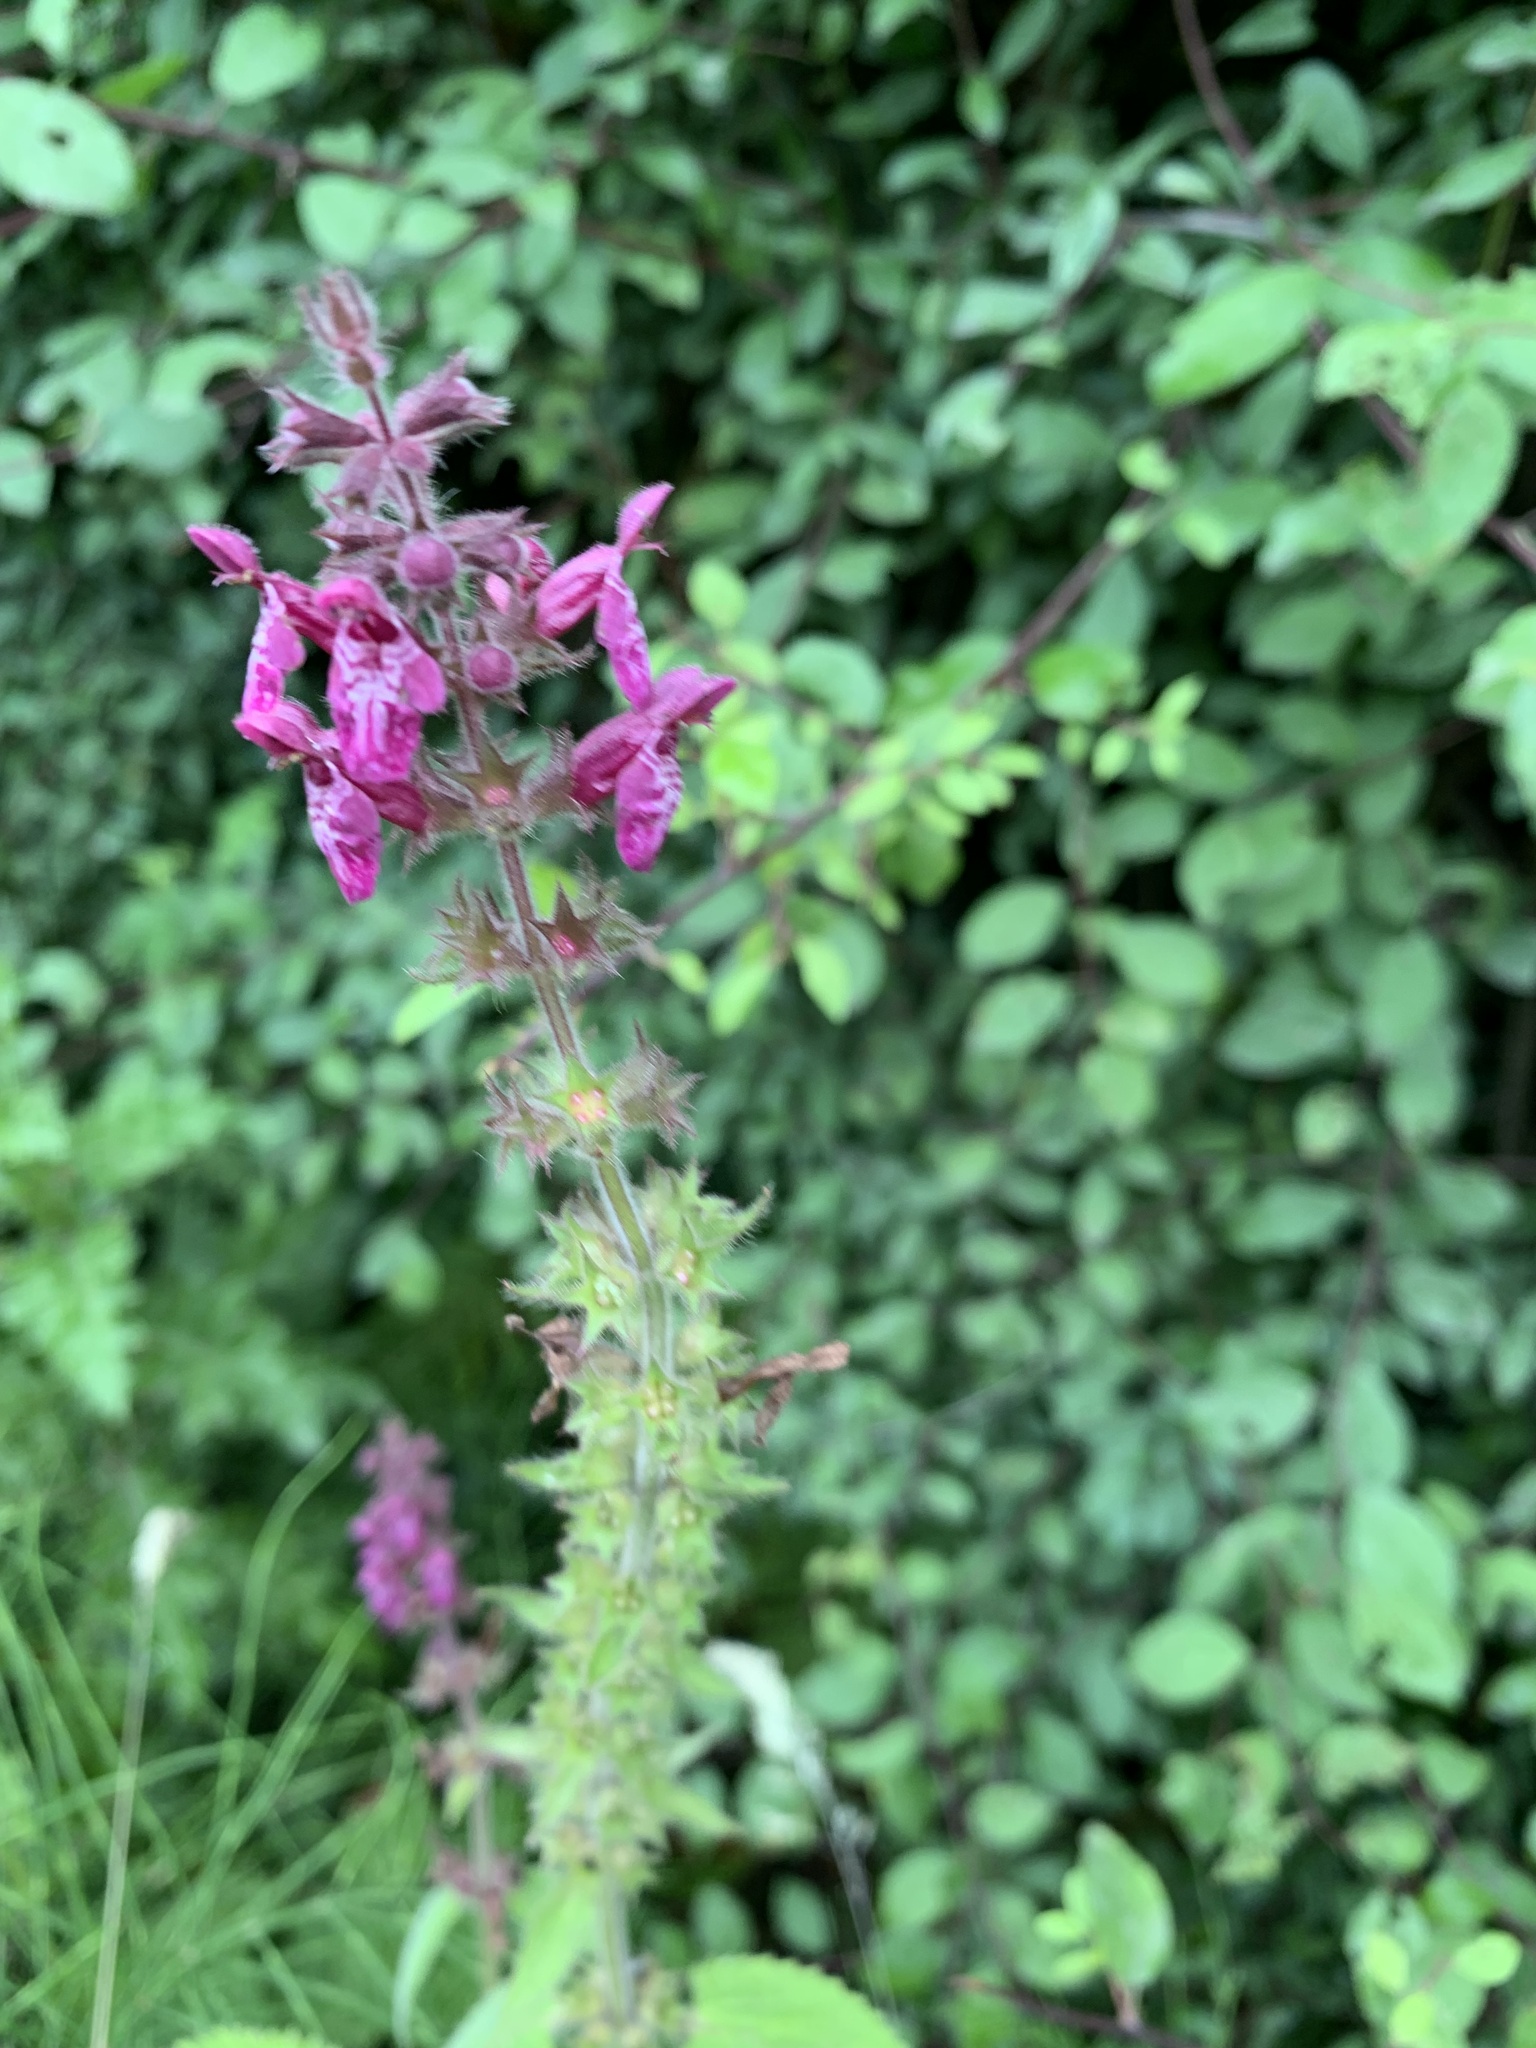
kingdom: Plantae
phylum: Tracheophyta
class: Magnoliopsida
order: Lamiales
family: Lamiaceae
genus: Stachys
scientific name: Stachys sylvatica
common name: Hedge woundwort
